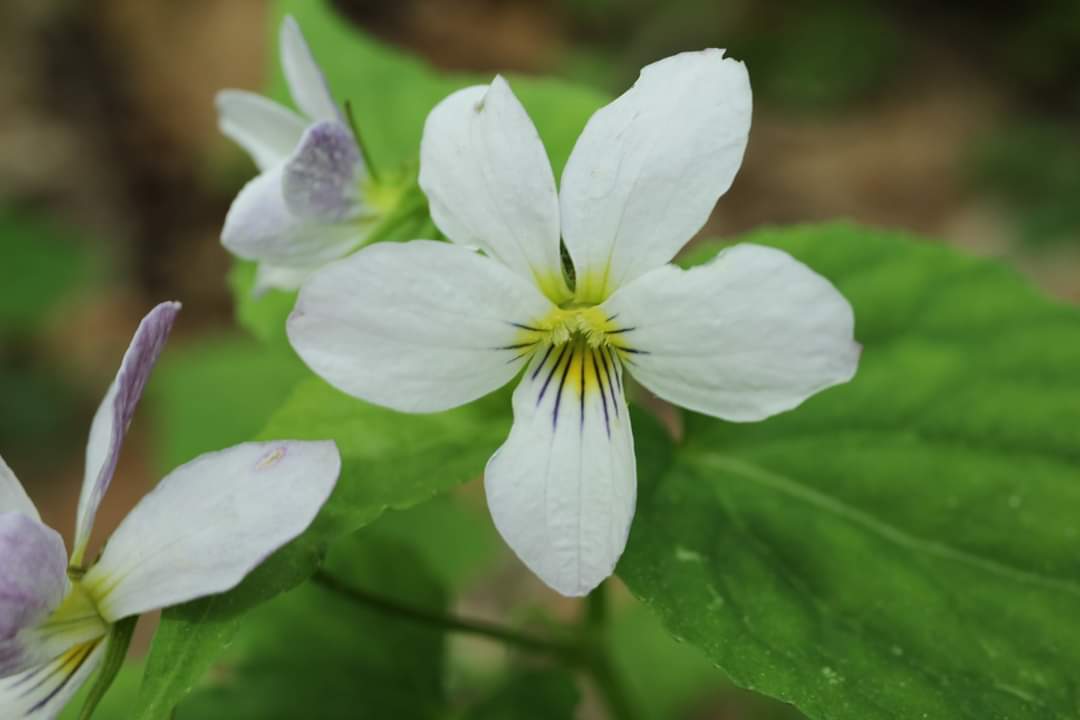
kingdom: Plantae
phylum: Tracheophyta
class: Magnoliopsida
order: Malpighiales
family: Violaceae
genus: Viola
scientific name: Viola canadensis
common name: Canada violet
